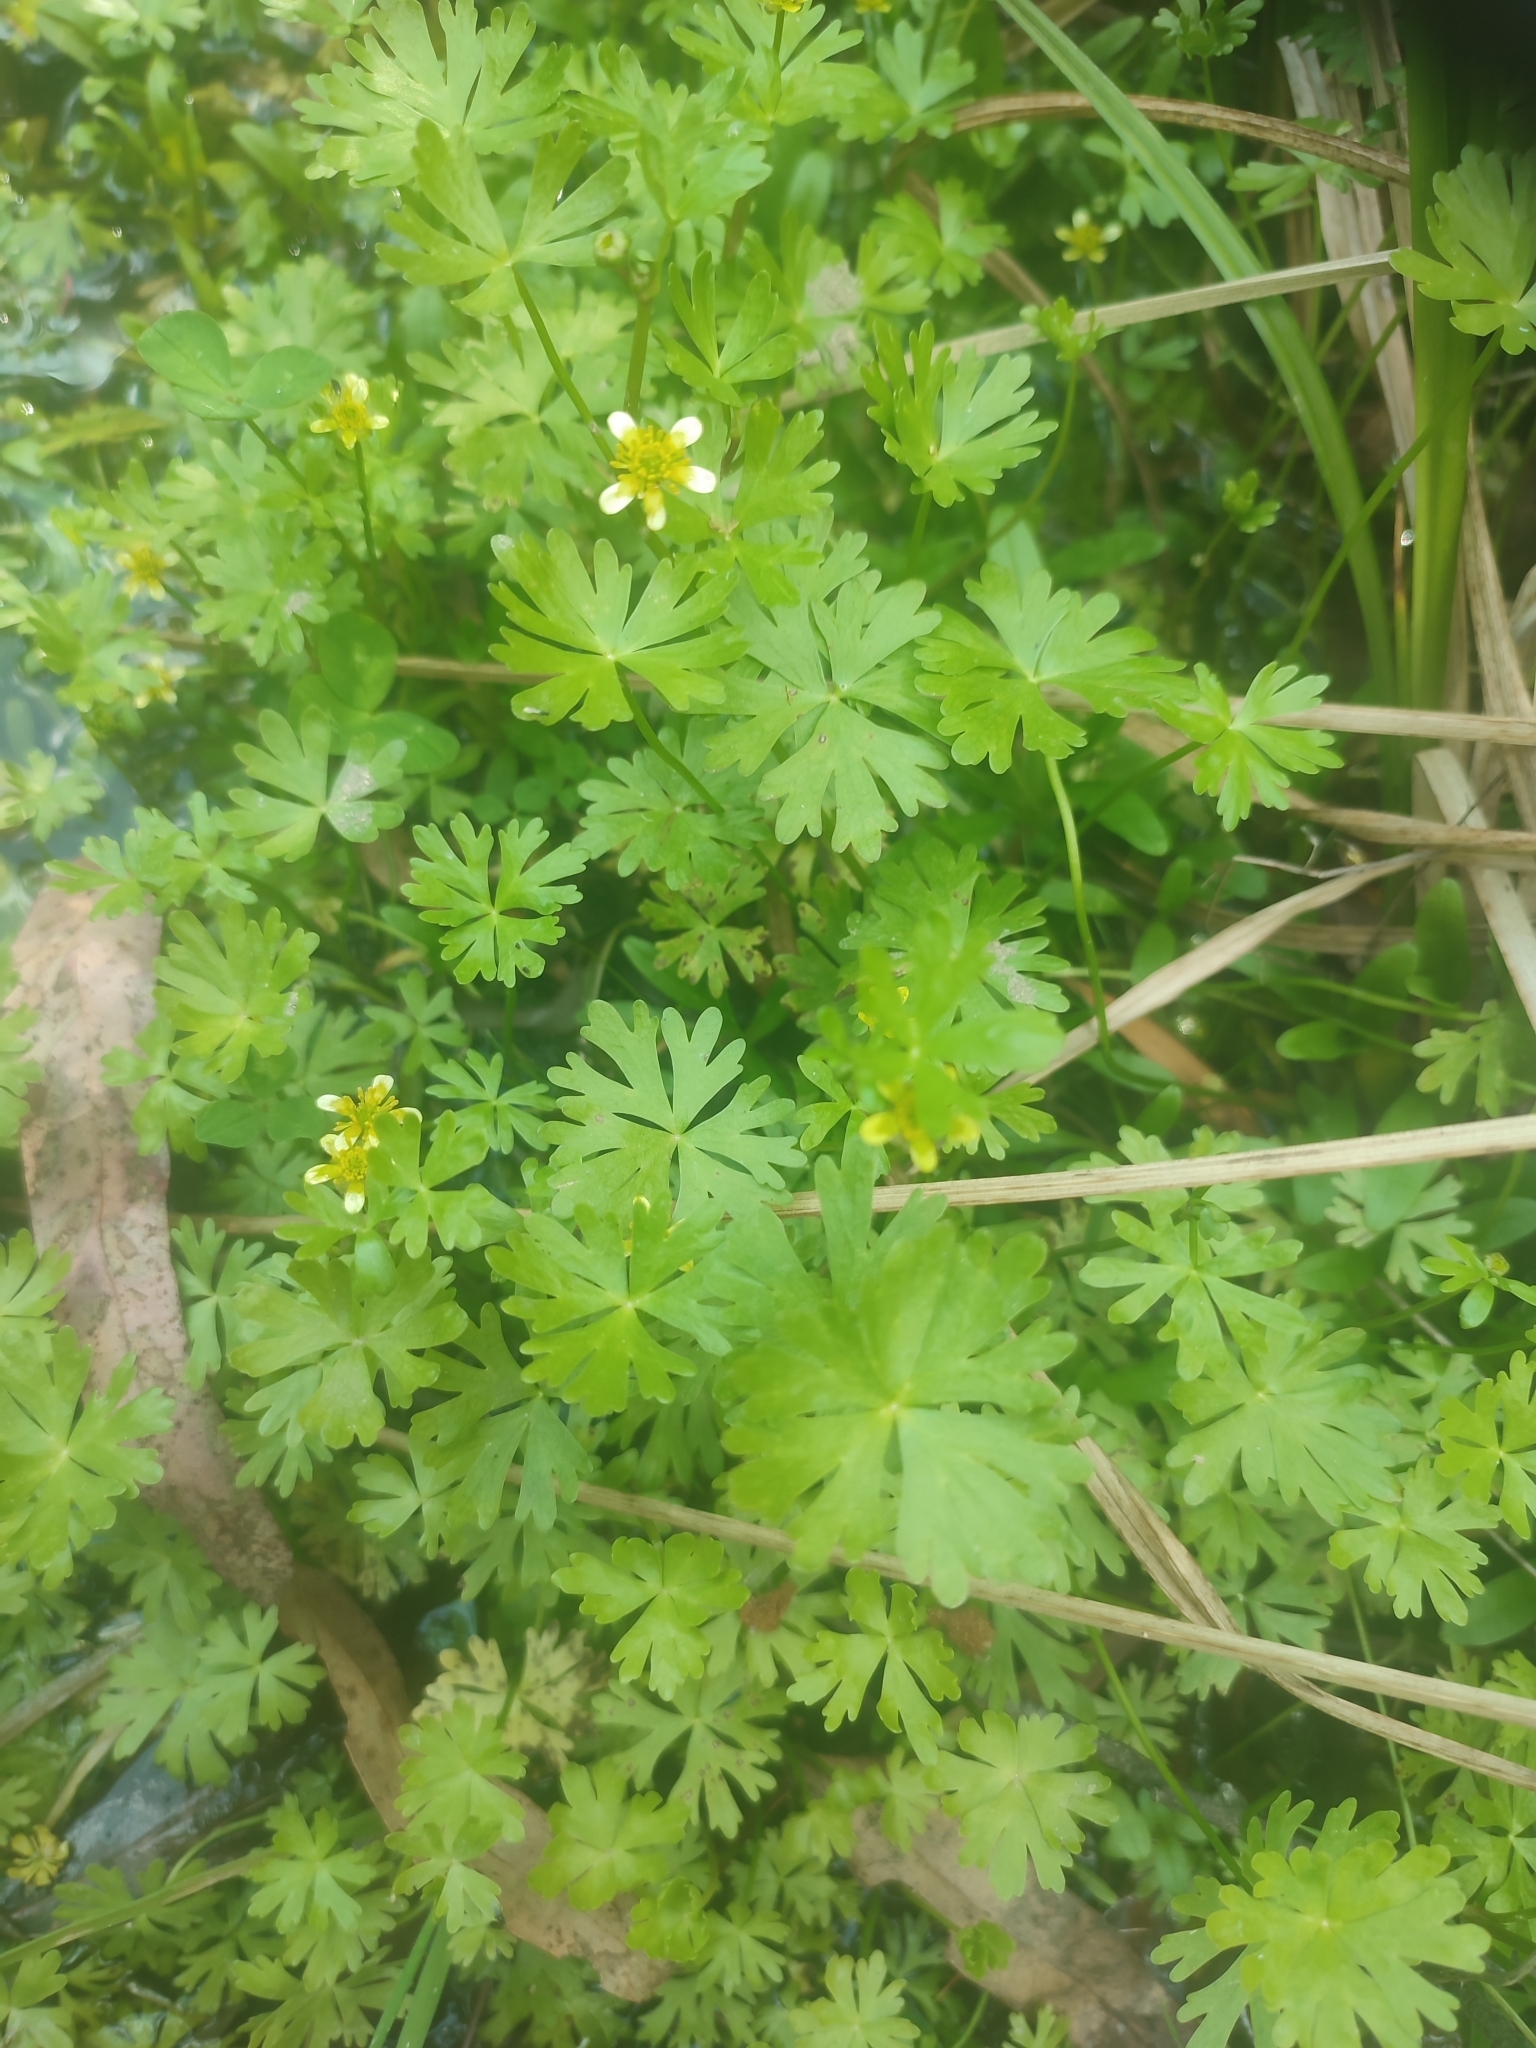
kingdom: Plantae
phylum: Tracheophyta
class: Magnoliopsida
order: Ranunculales
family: Ranunculaceae
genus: Ranunculus
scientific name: Ranunculus inundatus
